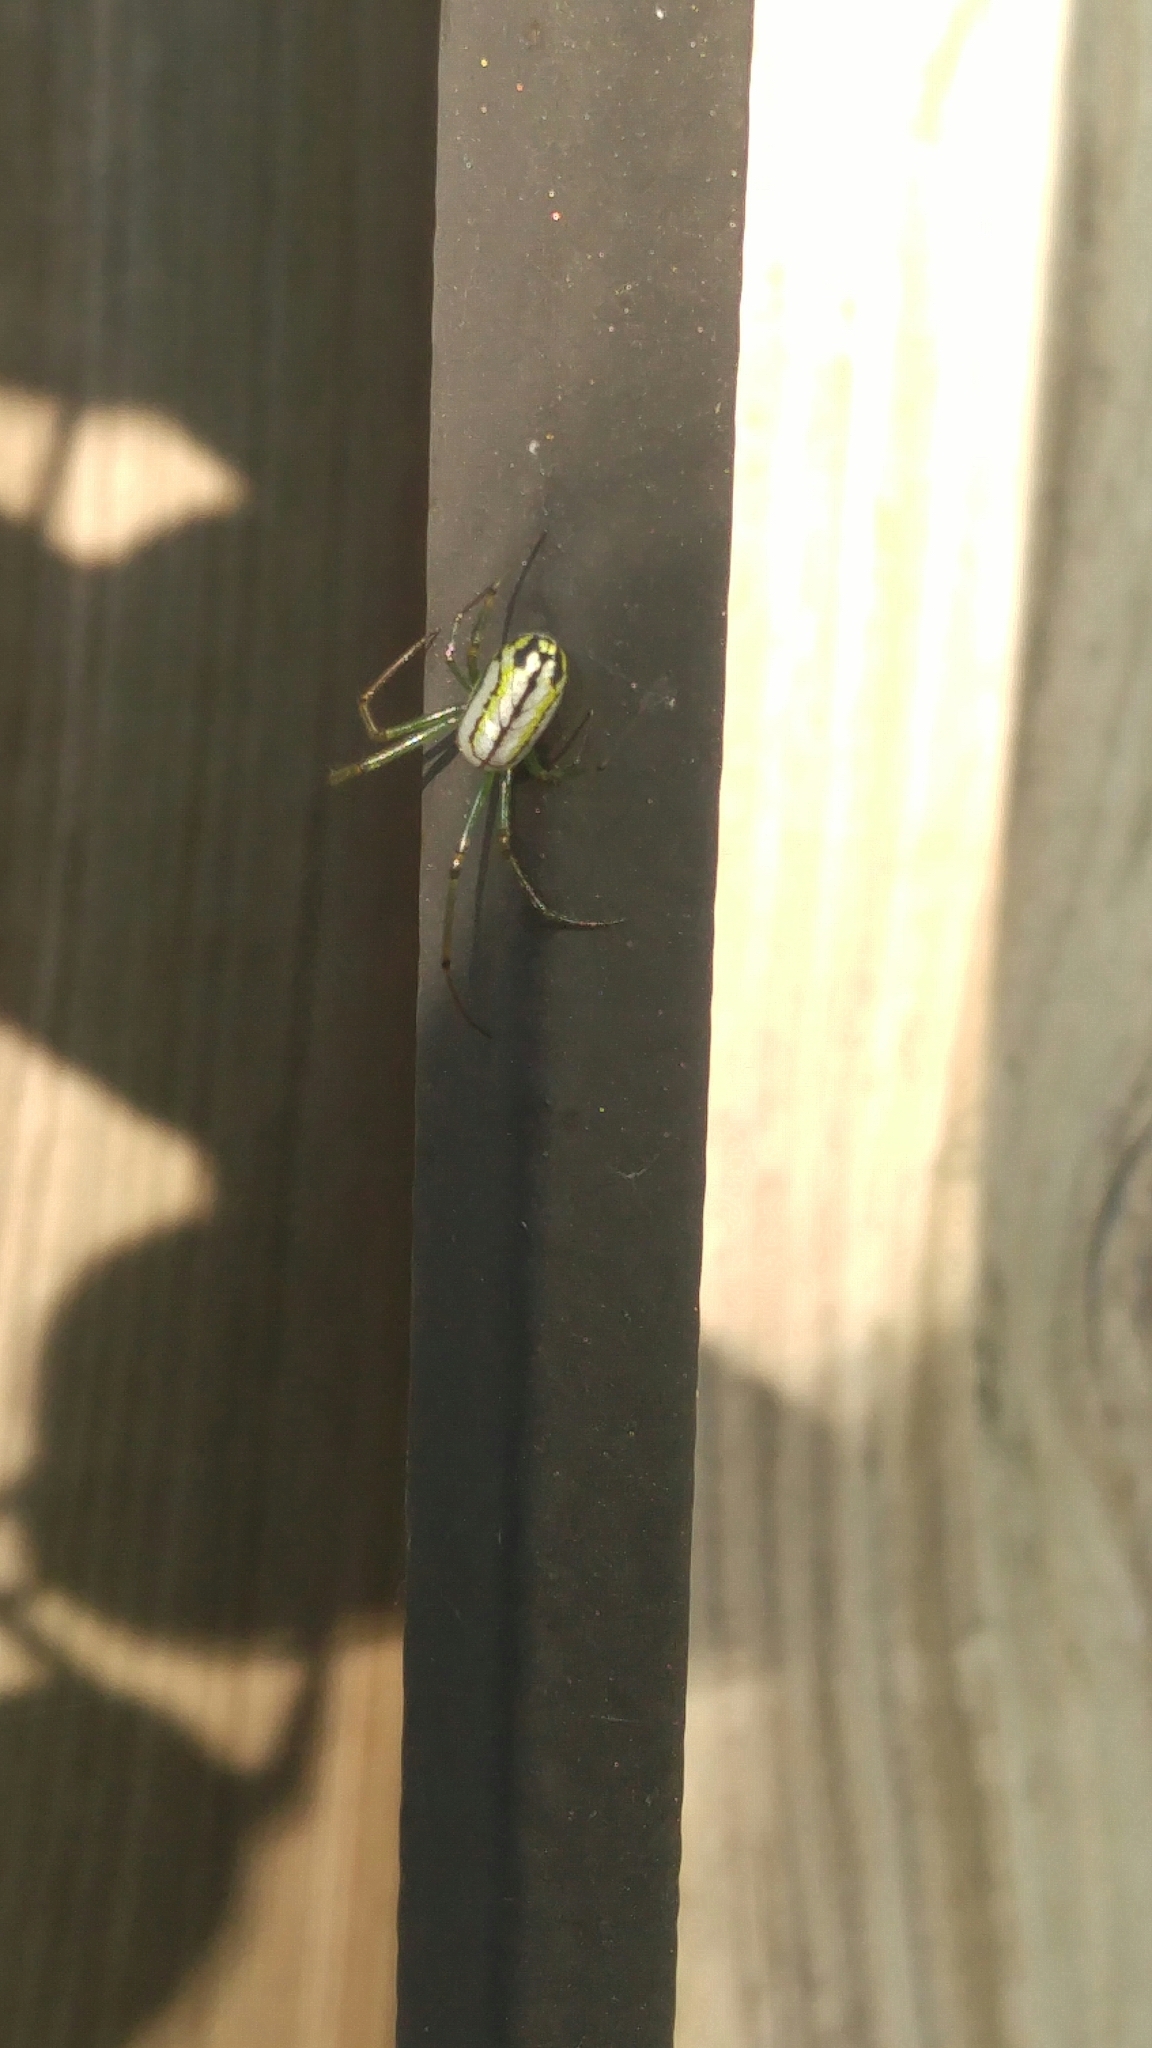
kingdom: Animalia
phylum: Arthropoda
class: Arachnida
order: Araneae
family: Tetragnathidae
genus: Leucauge
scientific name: Leucauge venusta
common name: Longjawed orb weavers
